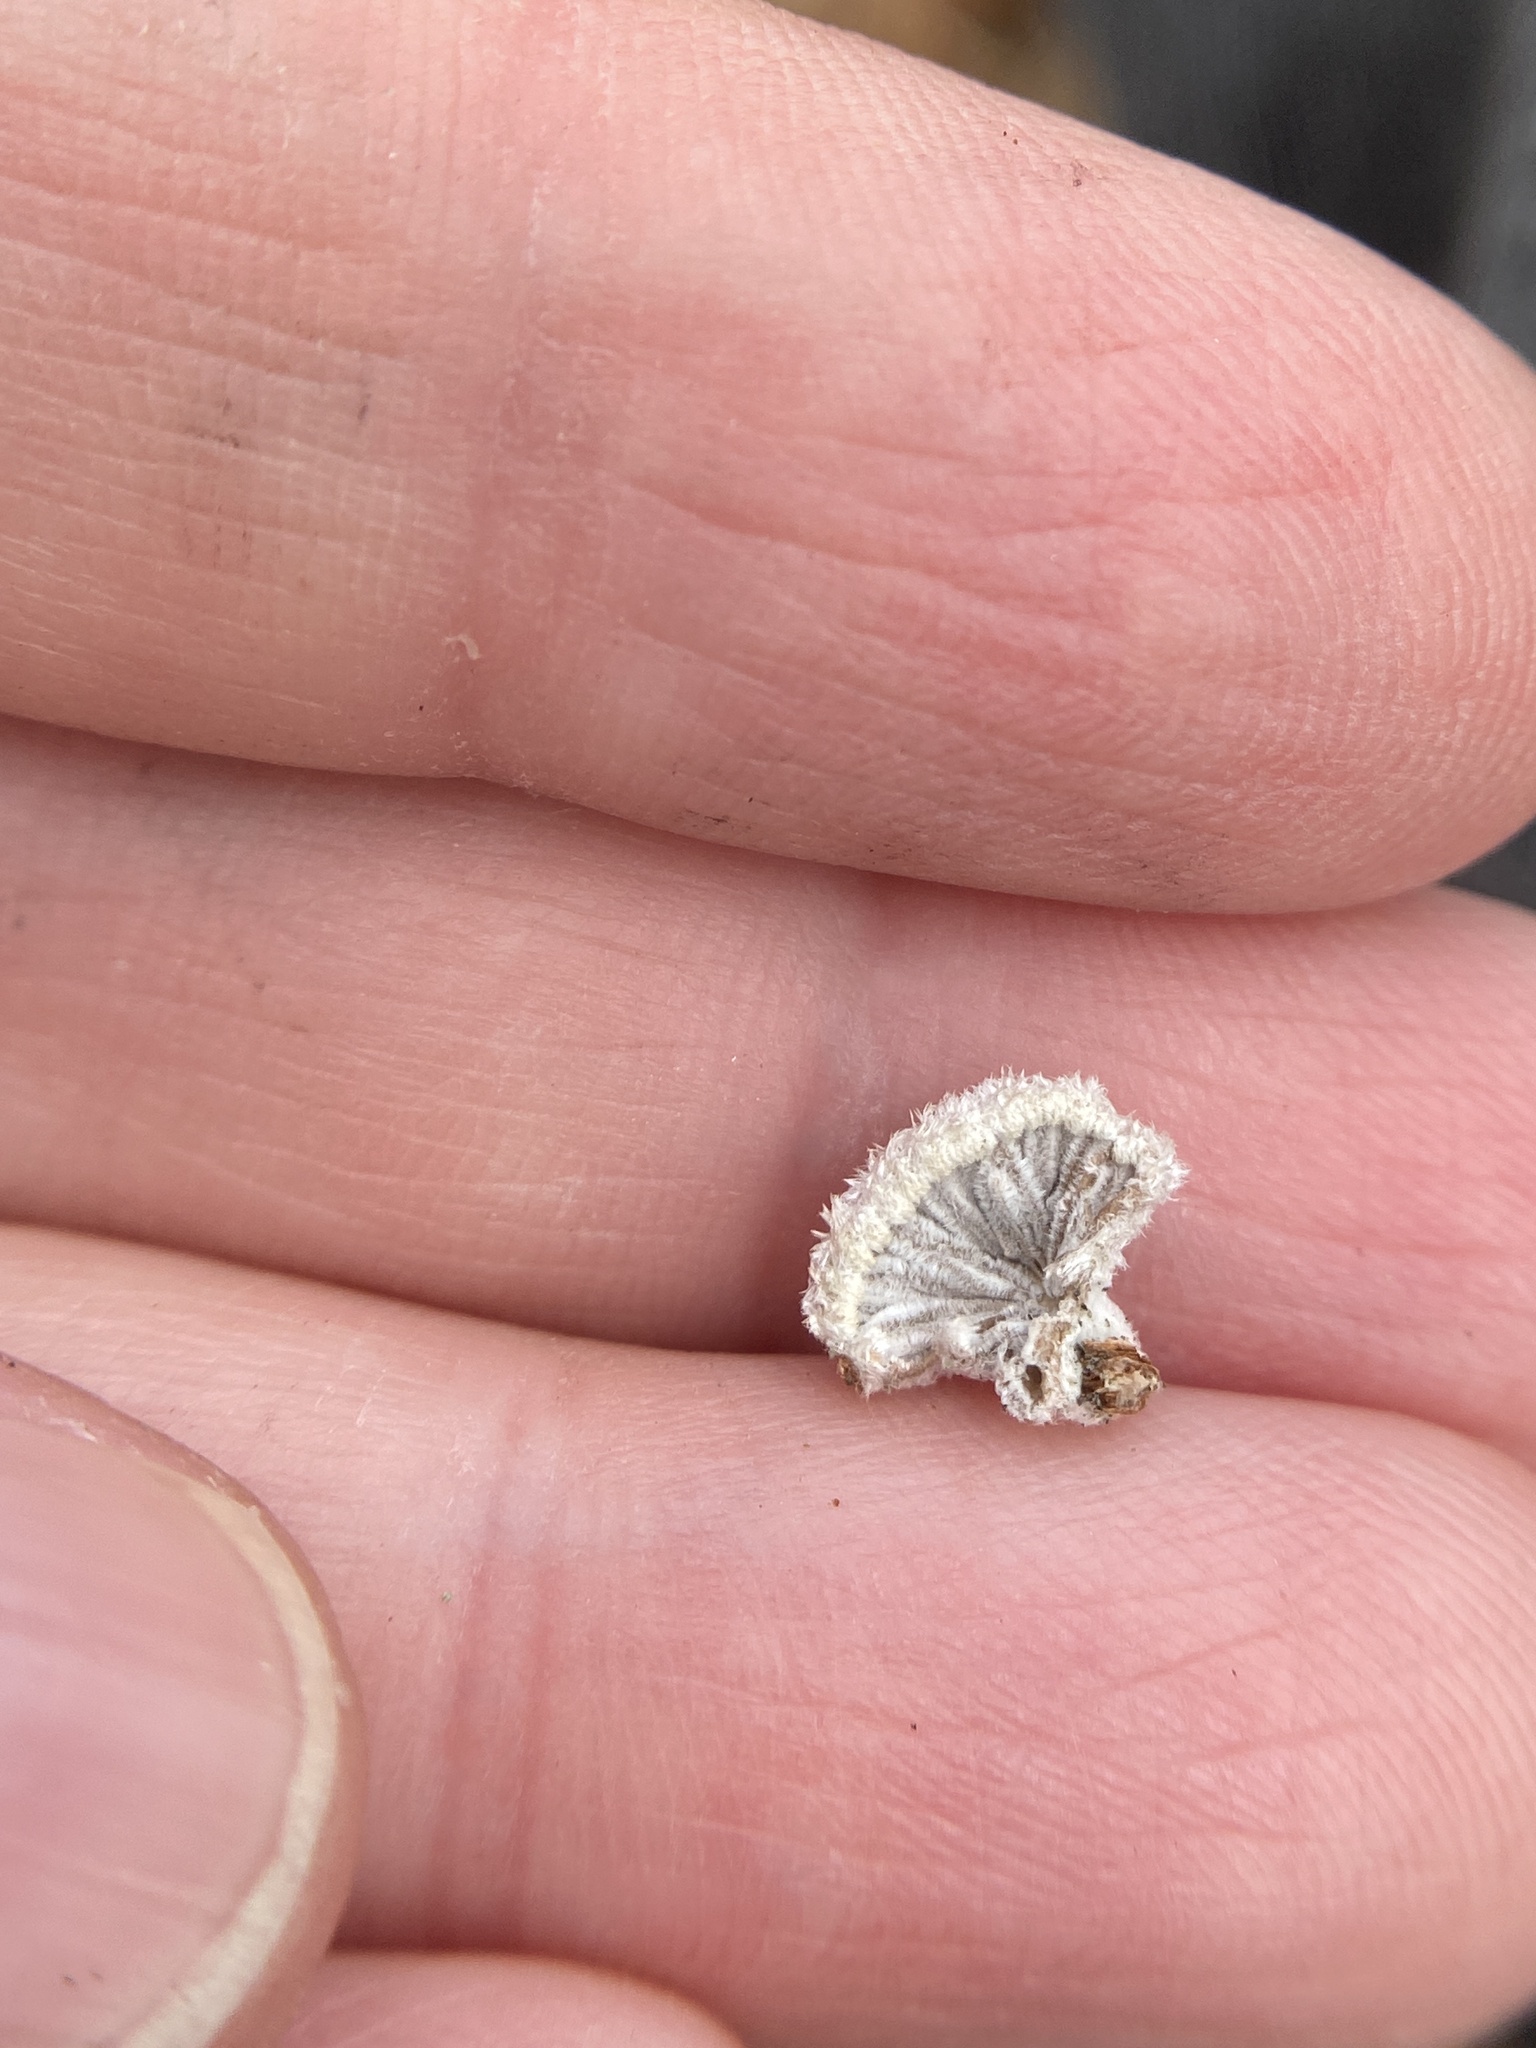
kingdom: Fungi
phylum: Basidiomycota
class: Agaricomycetes
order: Agaricales
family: Schizophyllaceae
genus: Schizophyllum
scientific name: Schizophyllum commune
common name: Common porecrust
